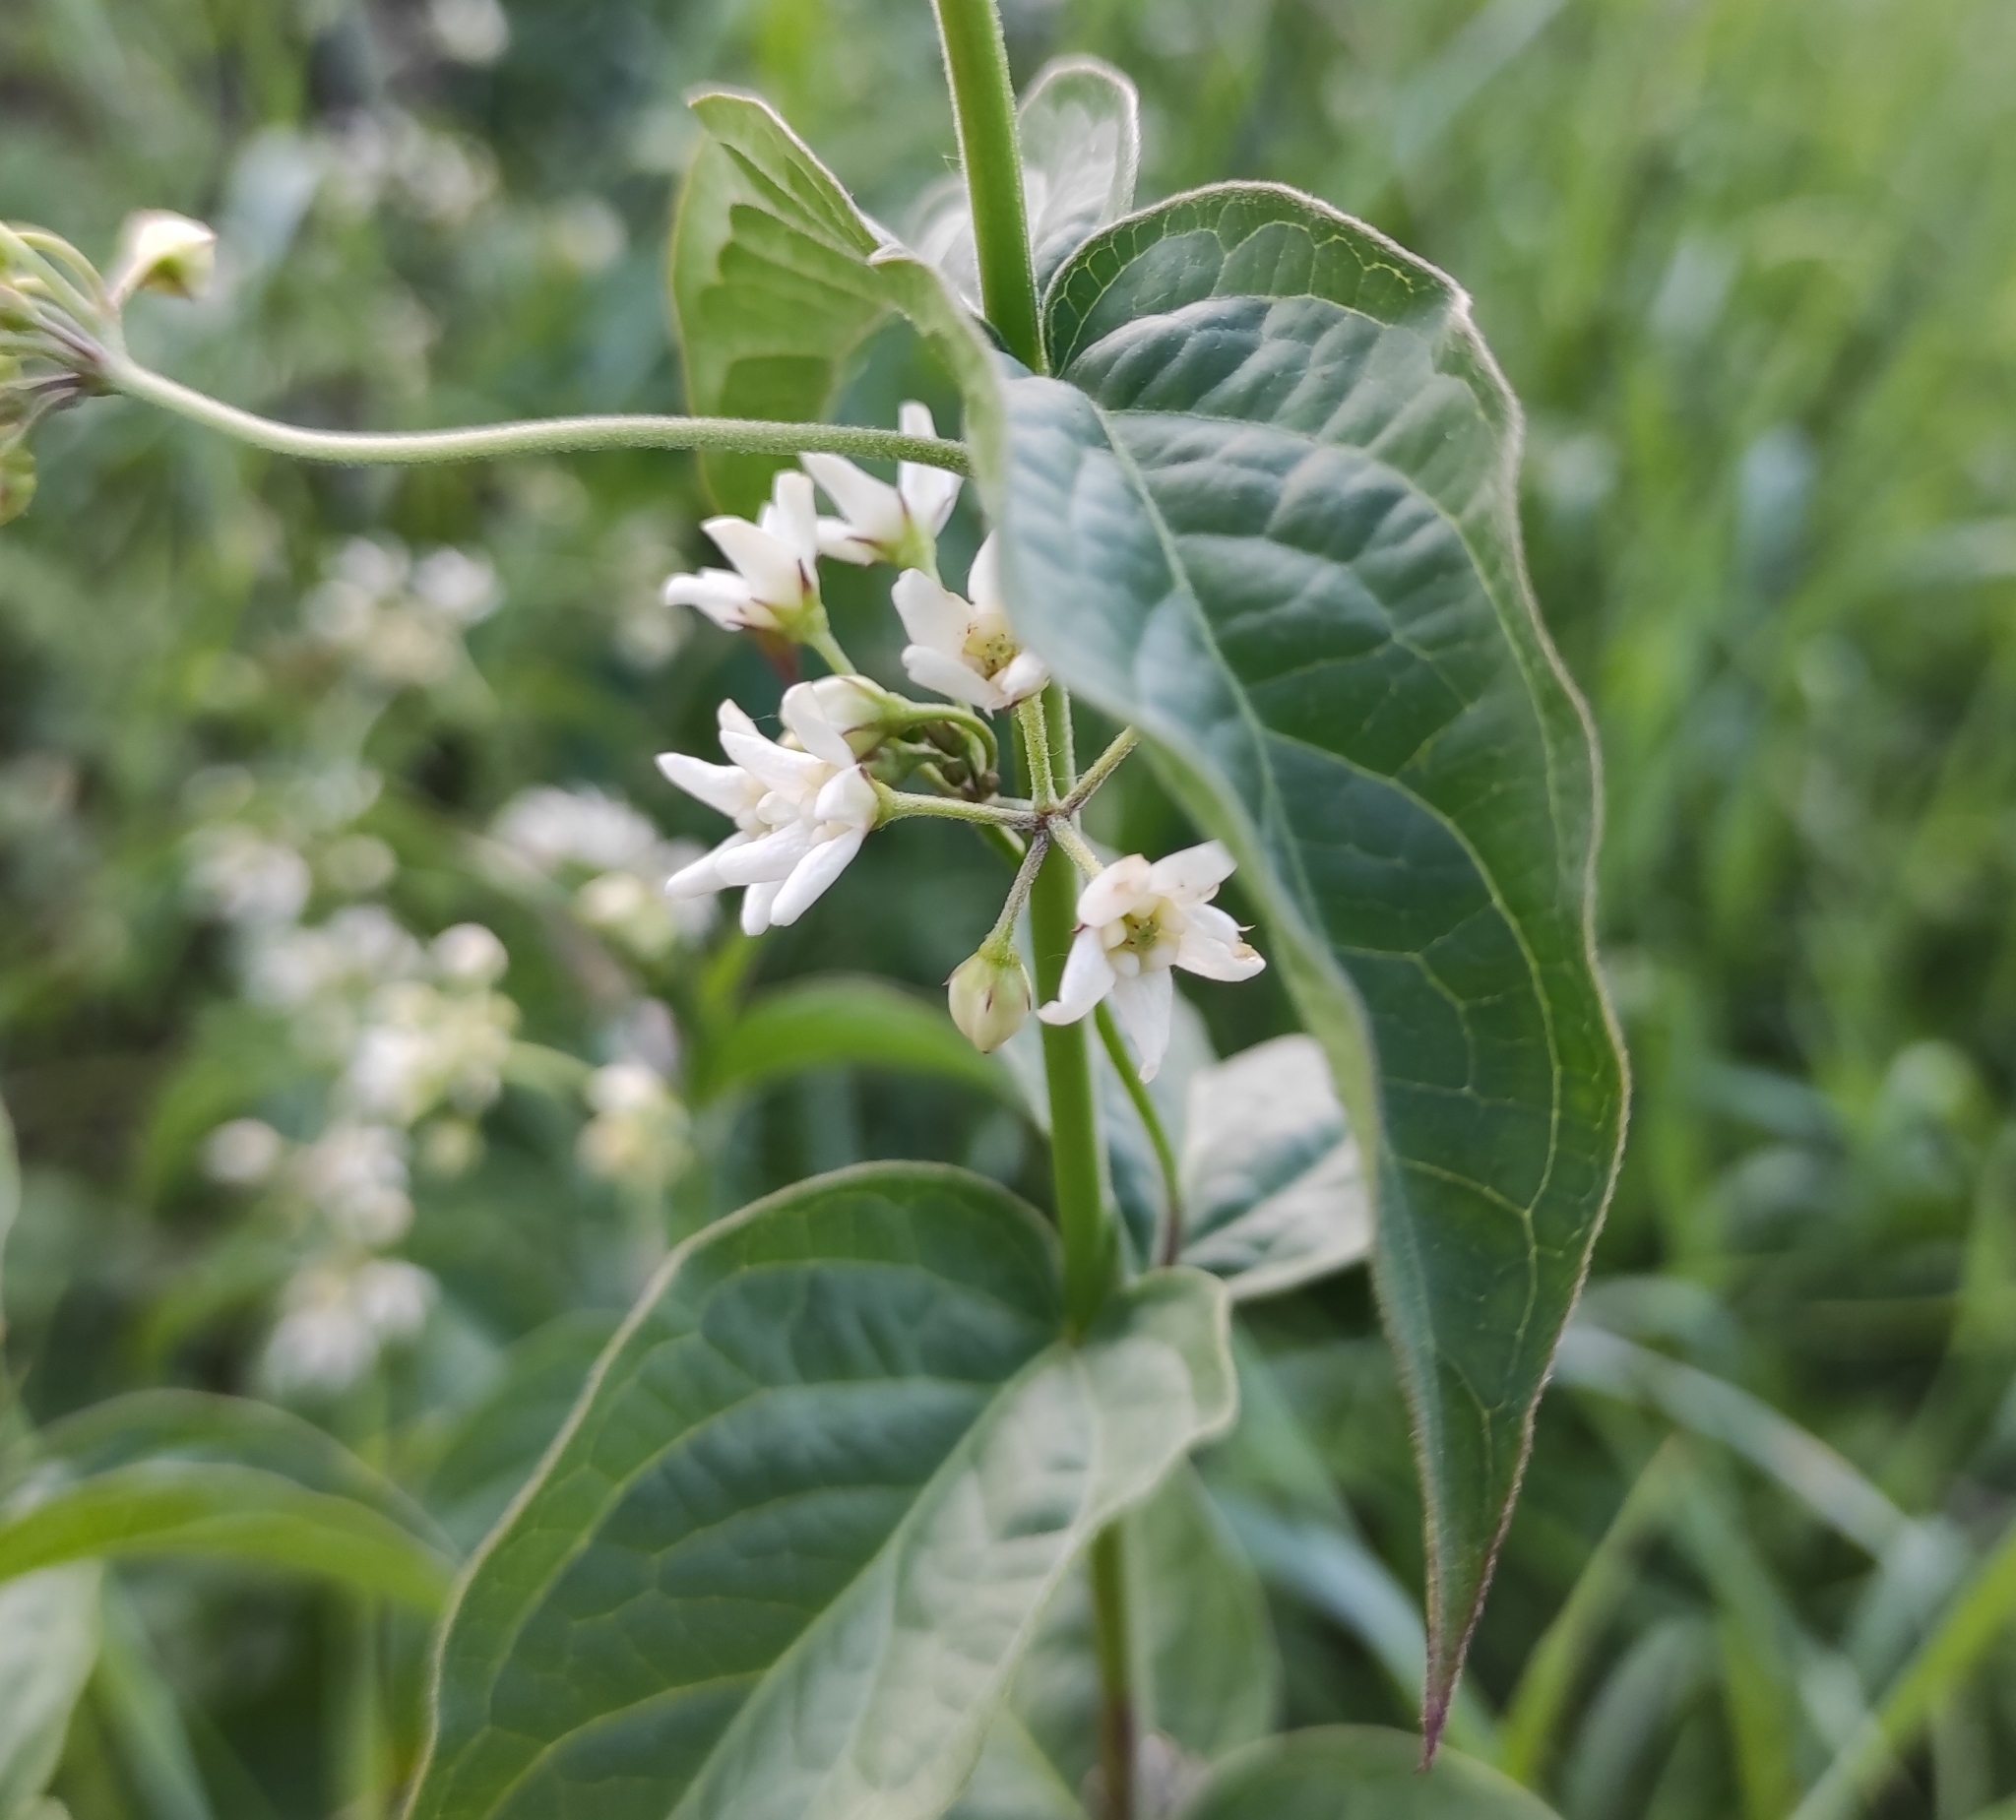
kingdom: Plantae
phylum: Tracheophyta
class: Magnoliopsida
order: Gentianales
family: Apocynaceae
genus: Vincetoxicum
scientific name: Vincetoxicum hirundinaria
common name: White swallowwort
